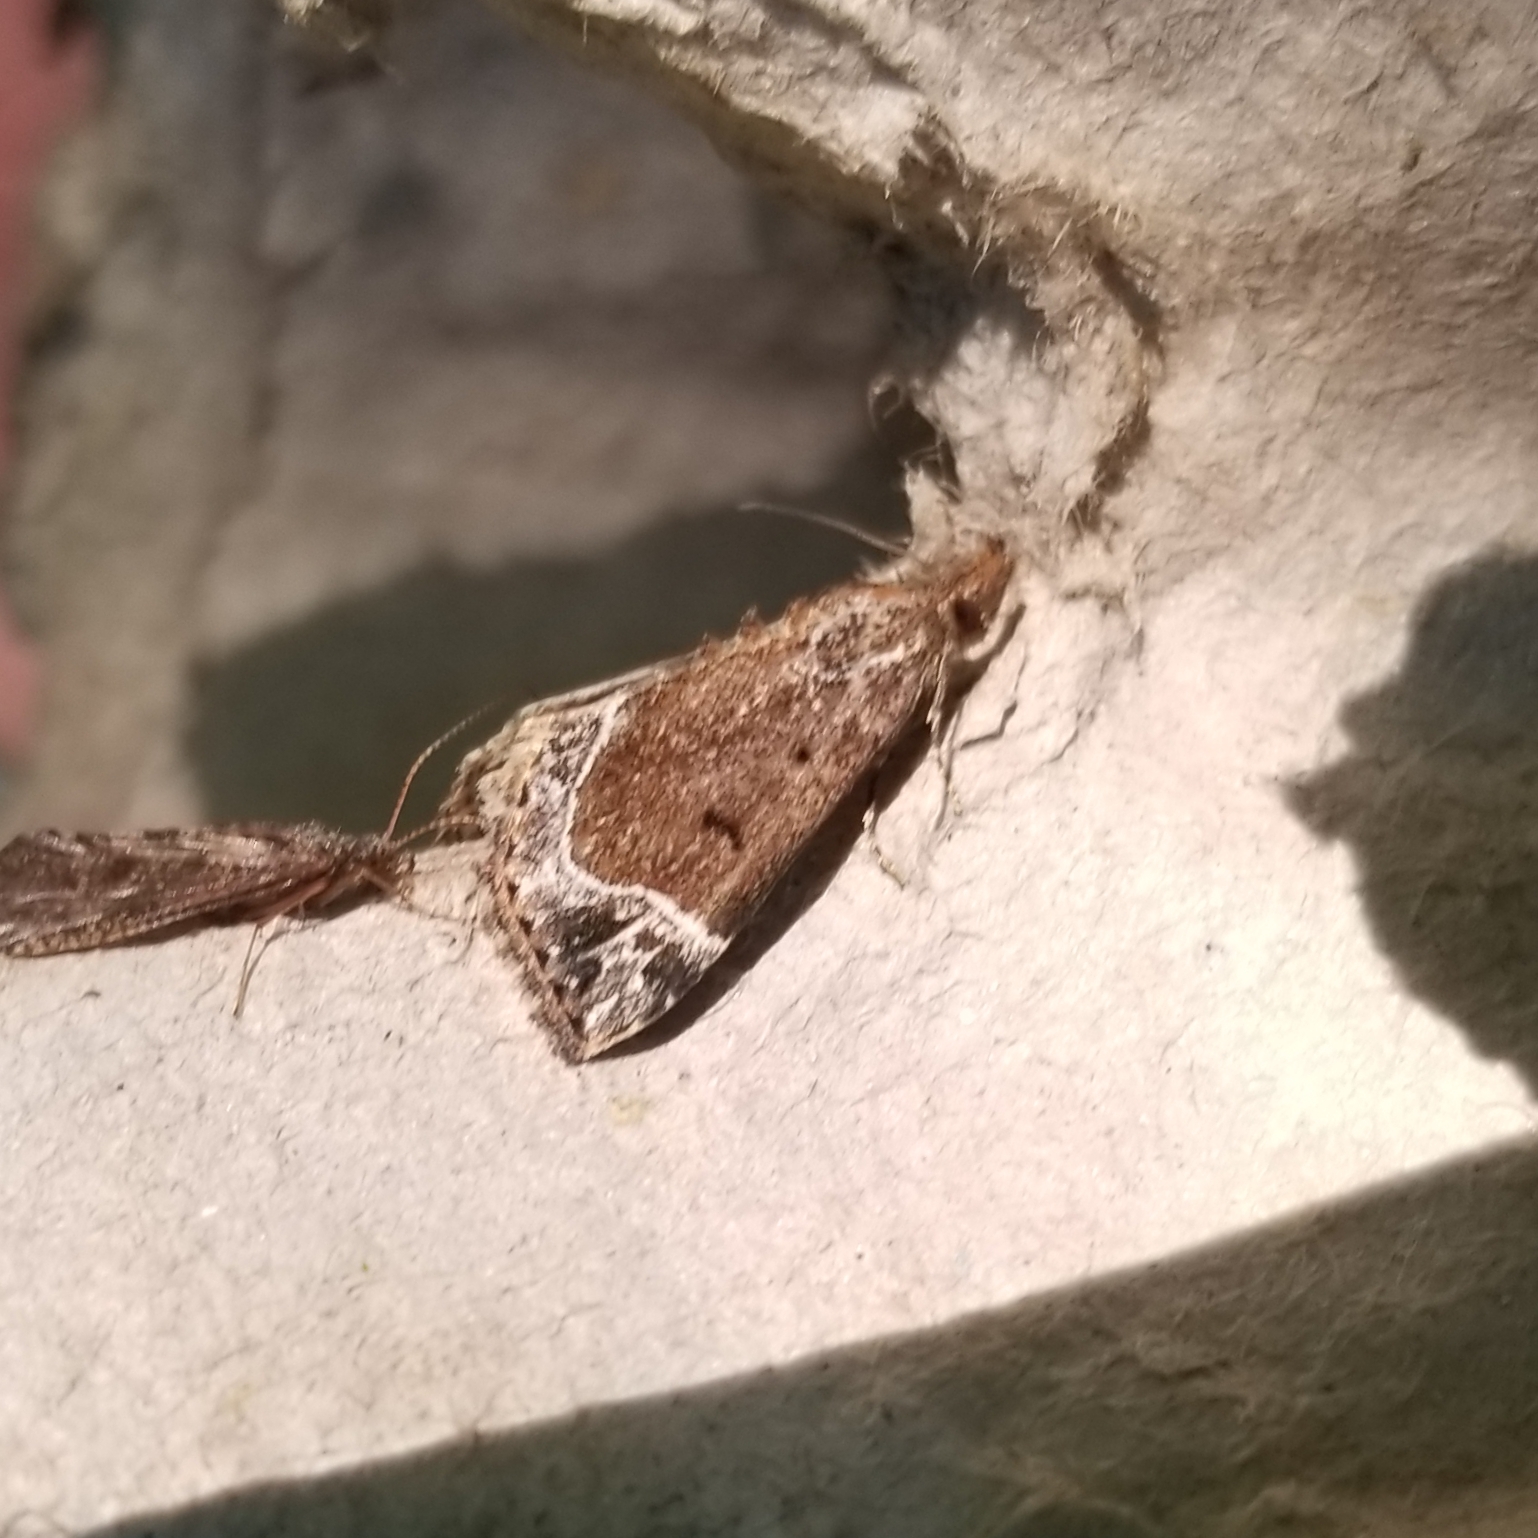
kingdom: Animalia
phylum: Arthropoda
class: Insecta
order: Lepidoptera
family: Erebidae
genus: Hypena
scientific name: Hypena abalienalis
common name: White-lined snout
